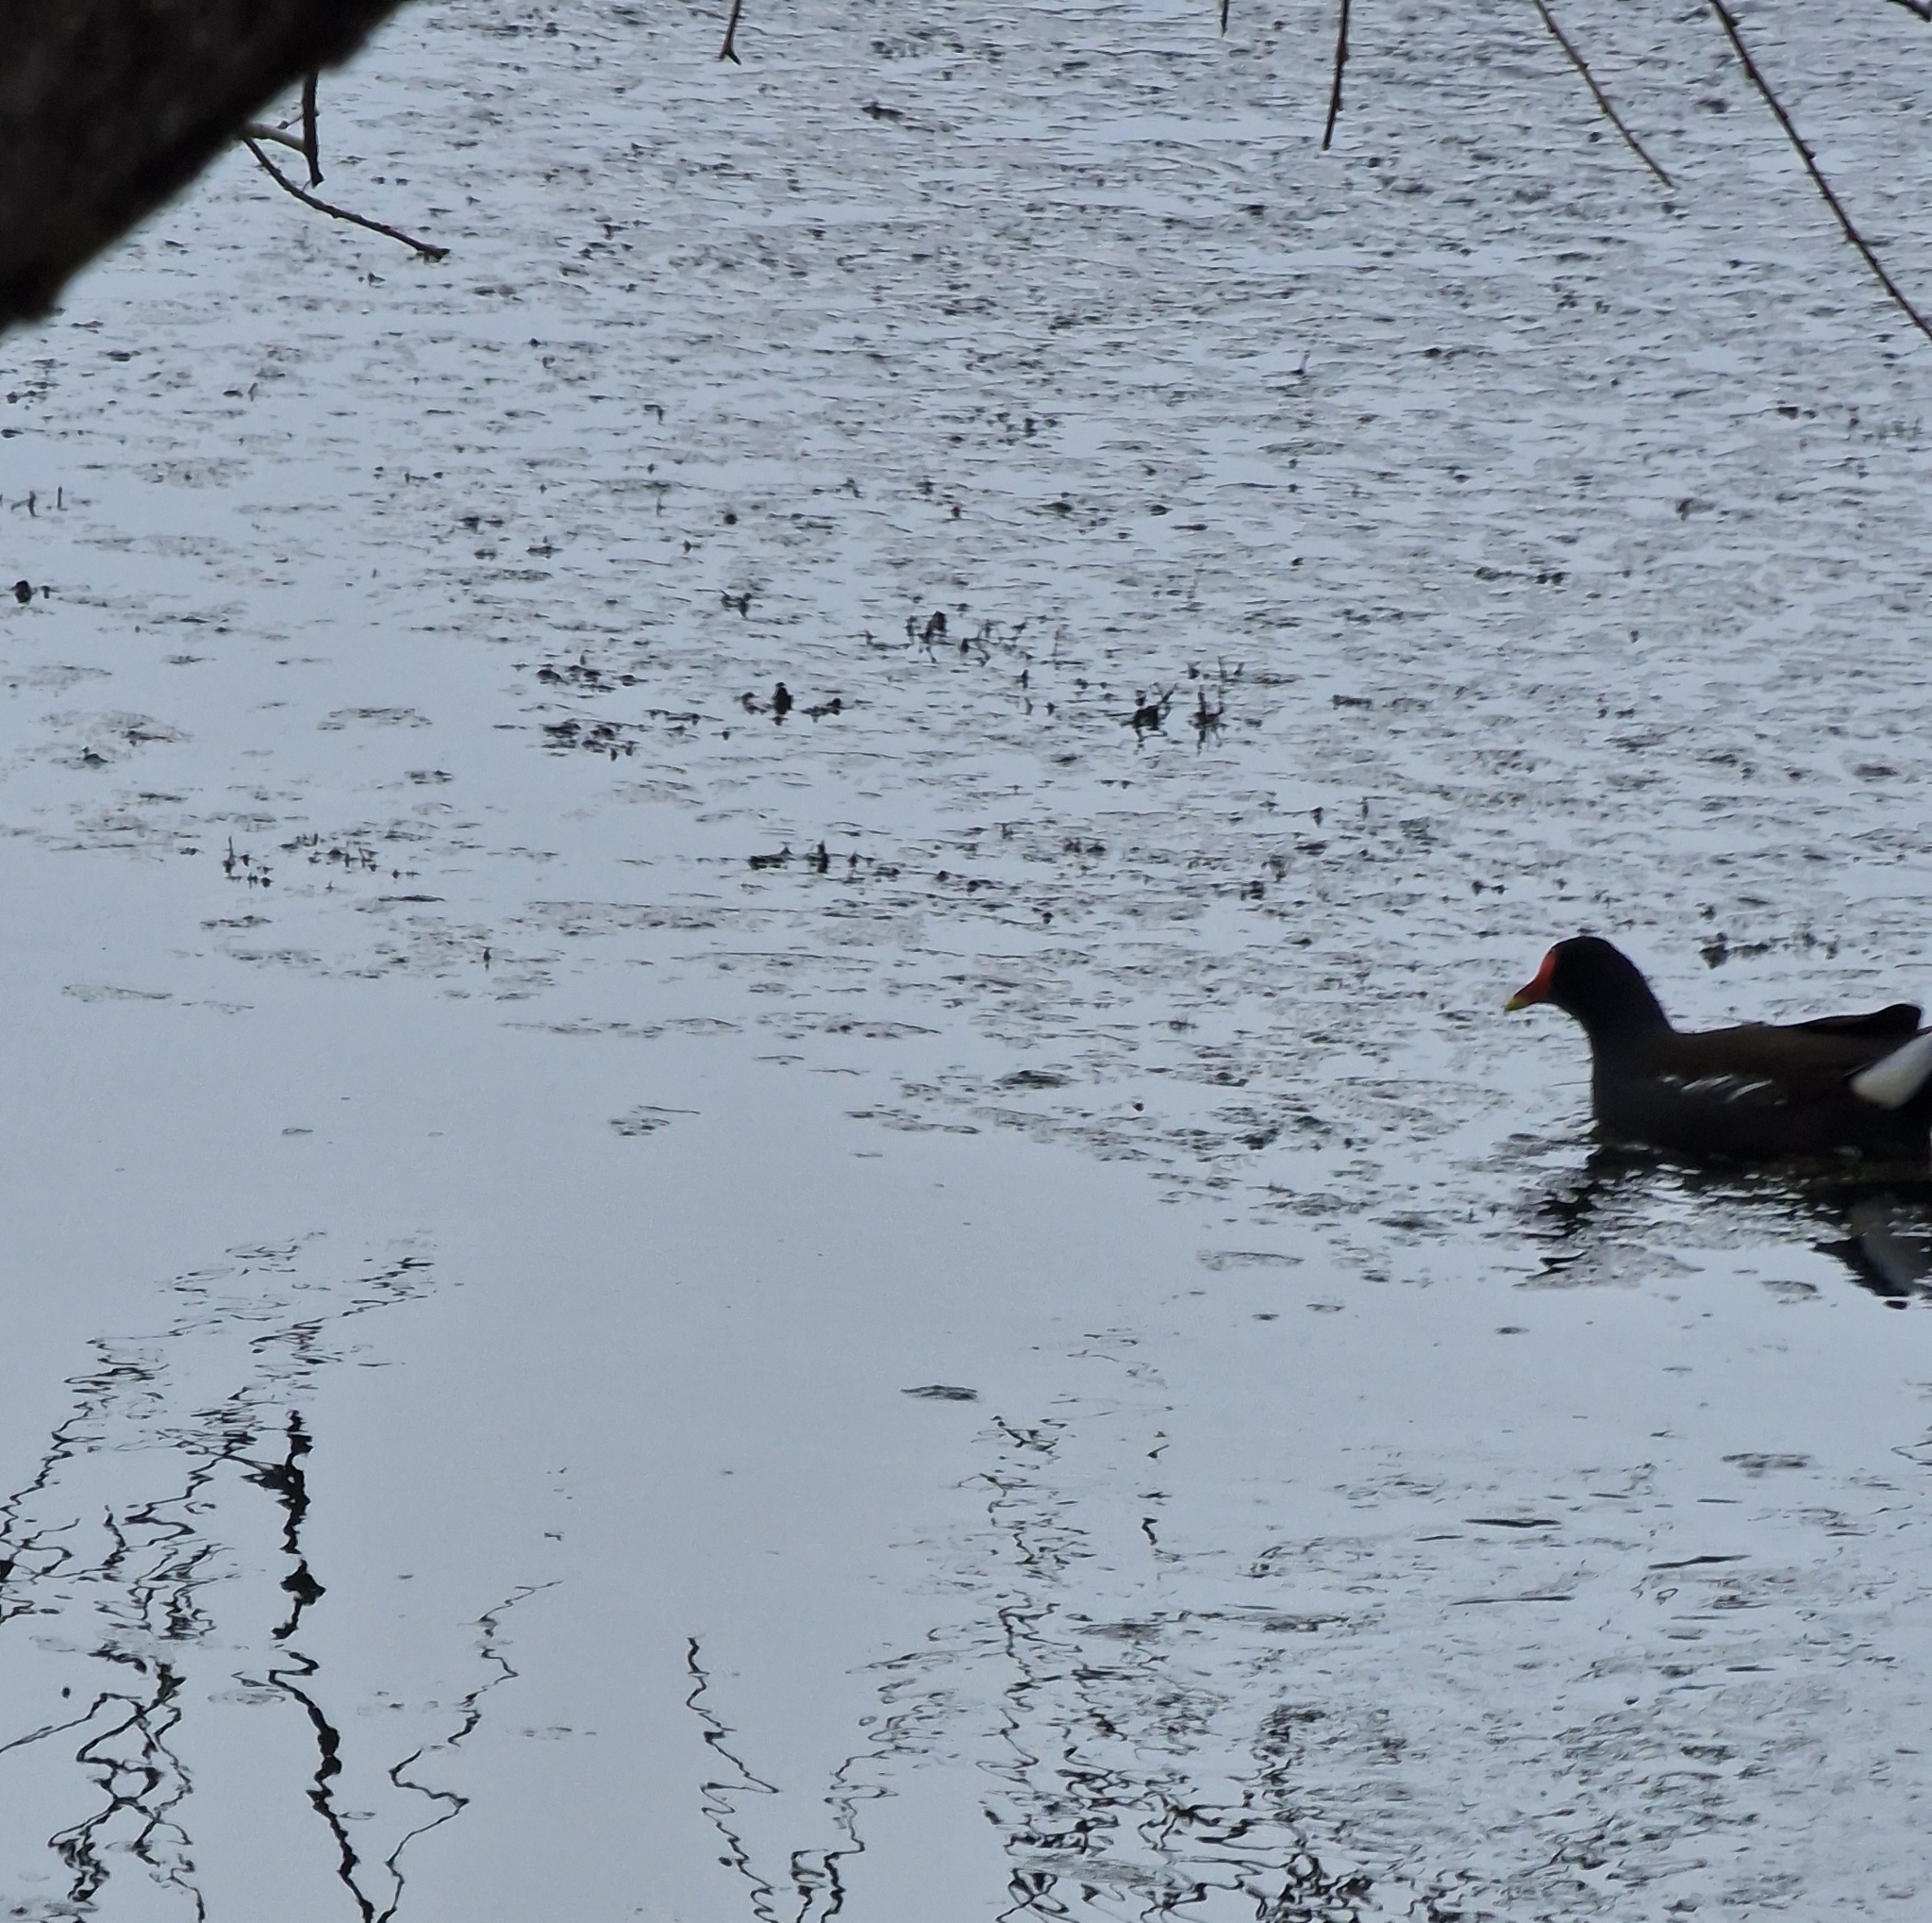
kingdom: Animalia
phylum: Chordata
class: Aves
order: Gruiformes
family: Rallidae
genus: Gallinula
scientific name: Gallinula chloropus
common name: Common moorhen
